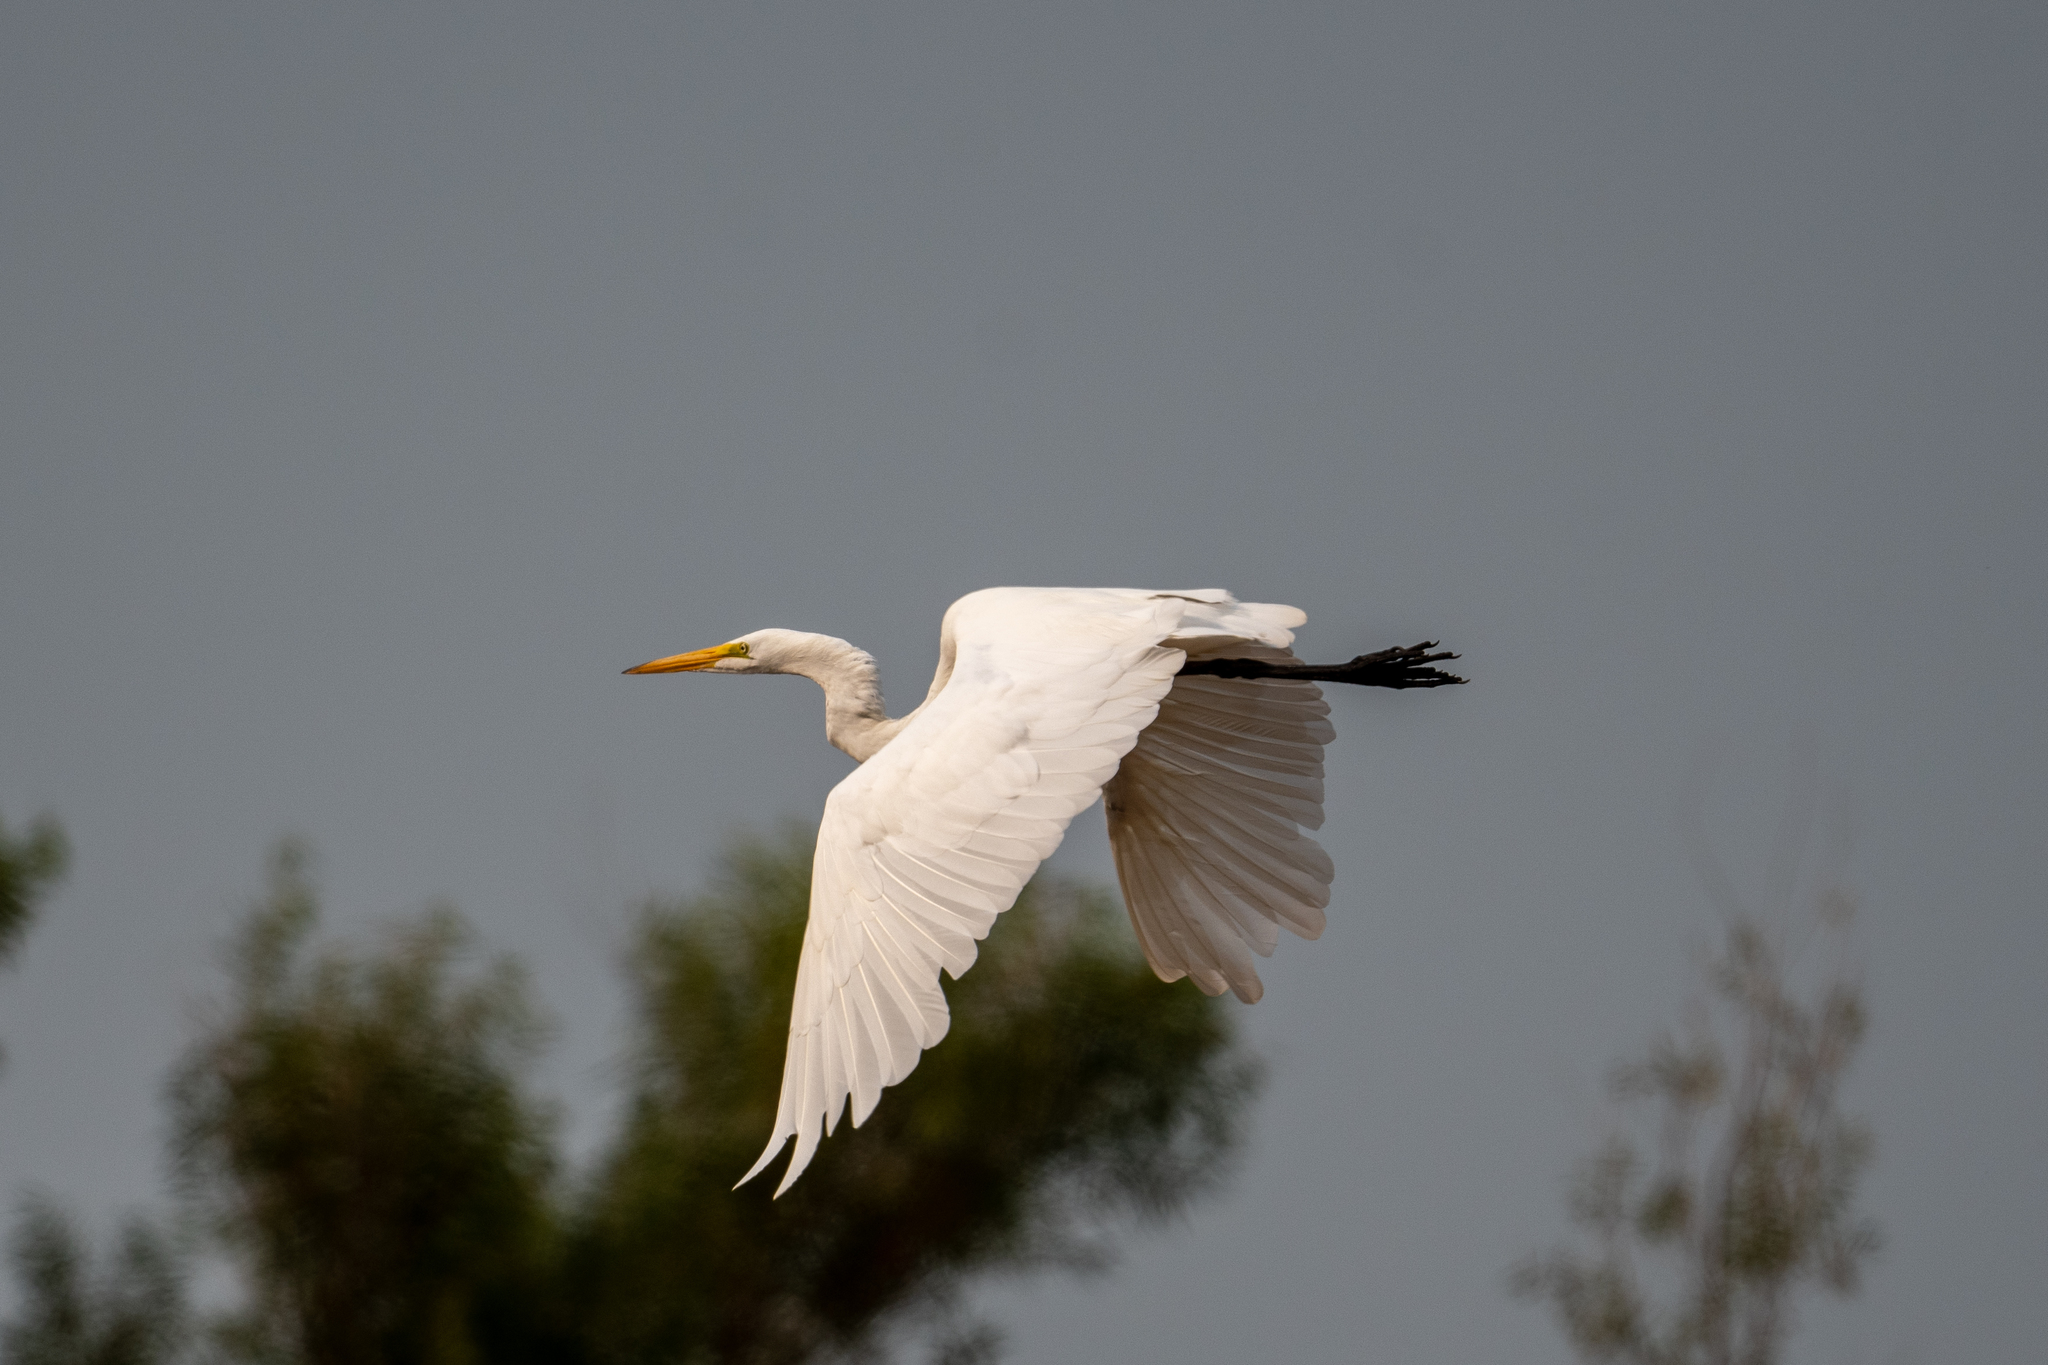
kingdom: Animalia
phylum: Chordata
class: Aves
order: Pelecaniformes
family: Ardeidae
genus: Ardea
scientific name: Ardea alba
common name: Great egret
